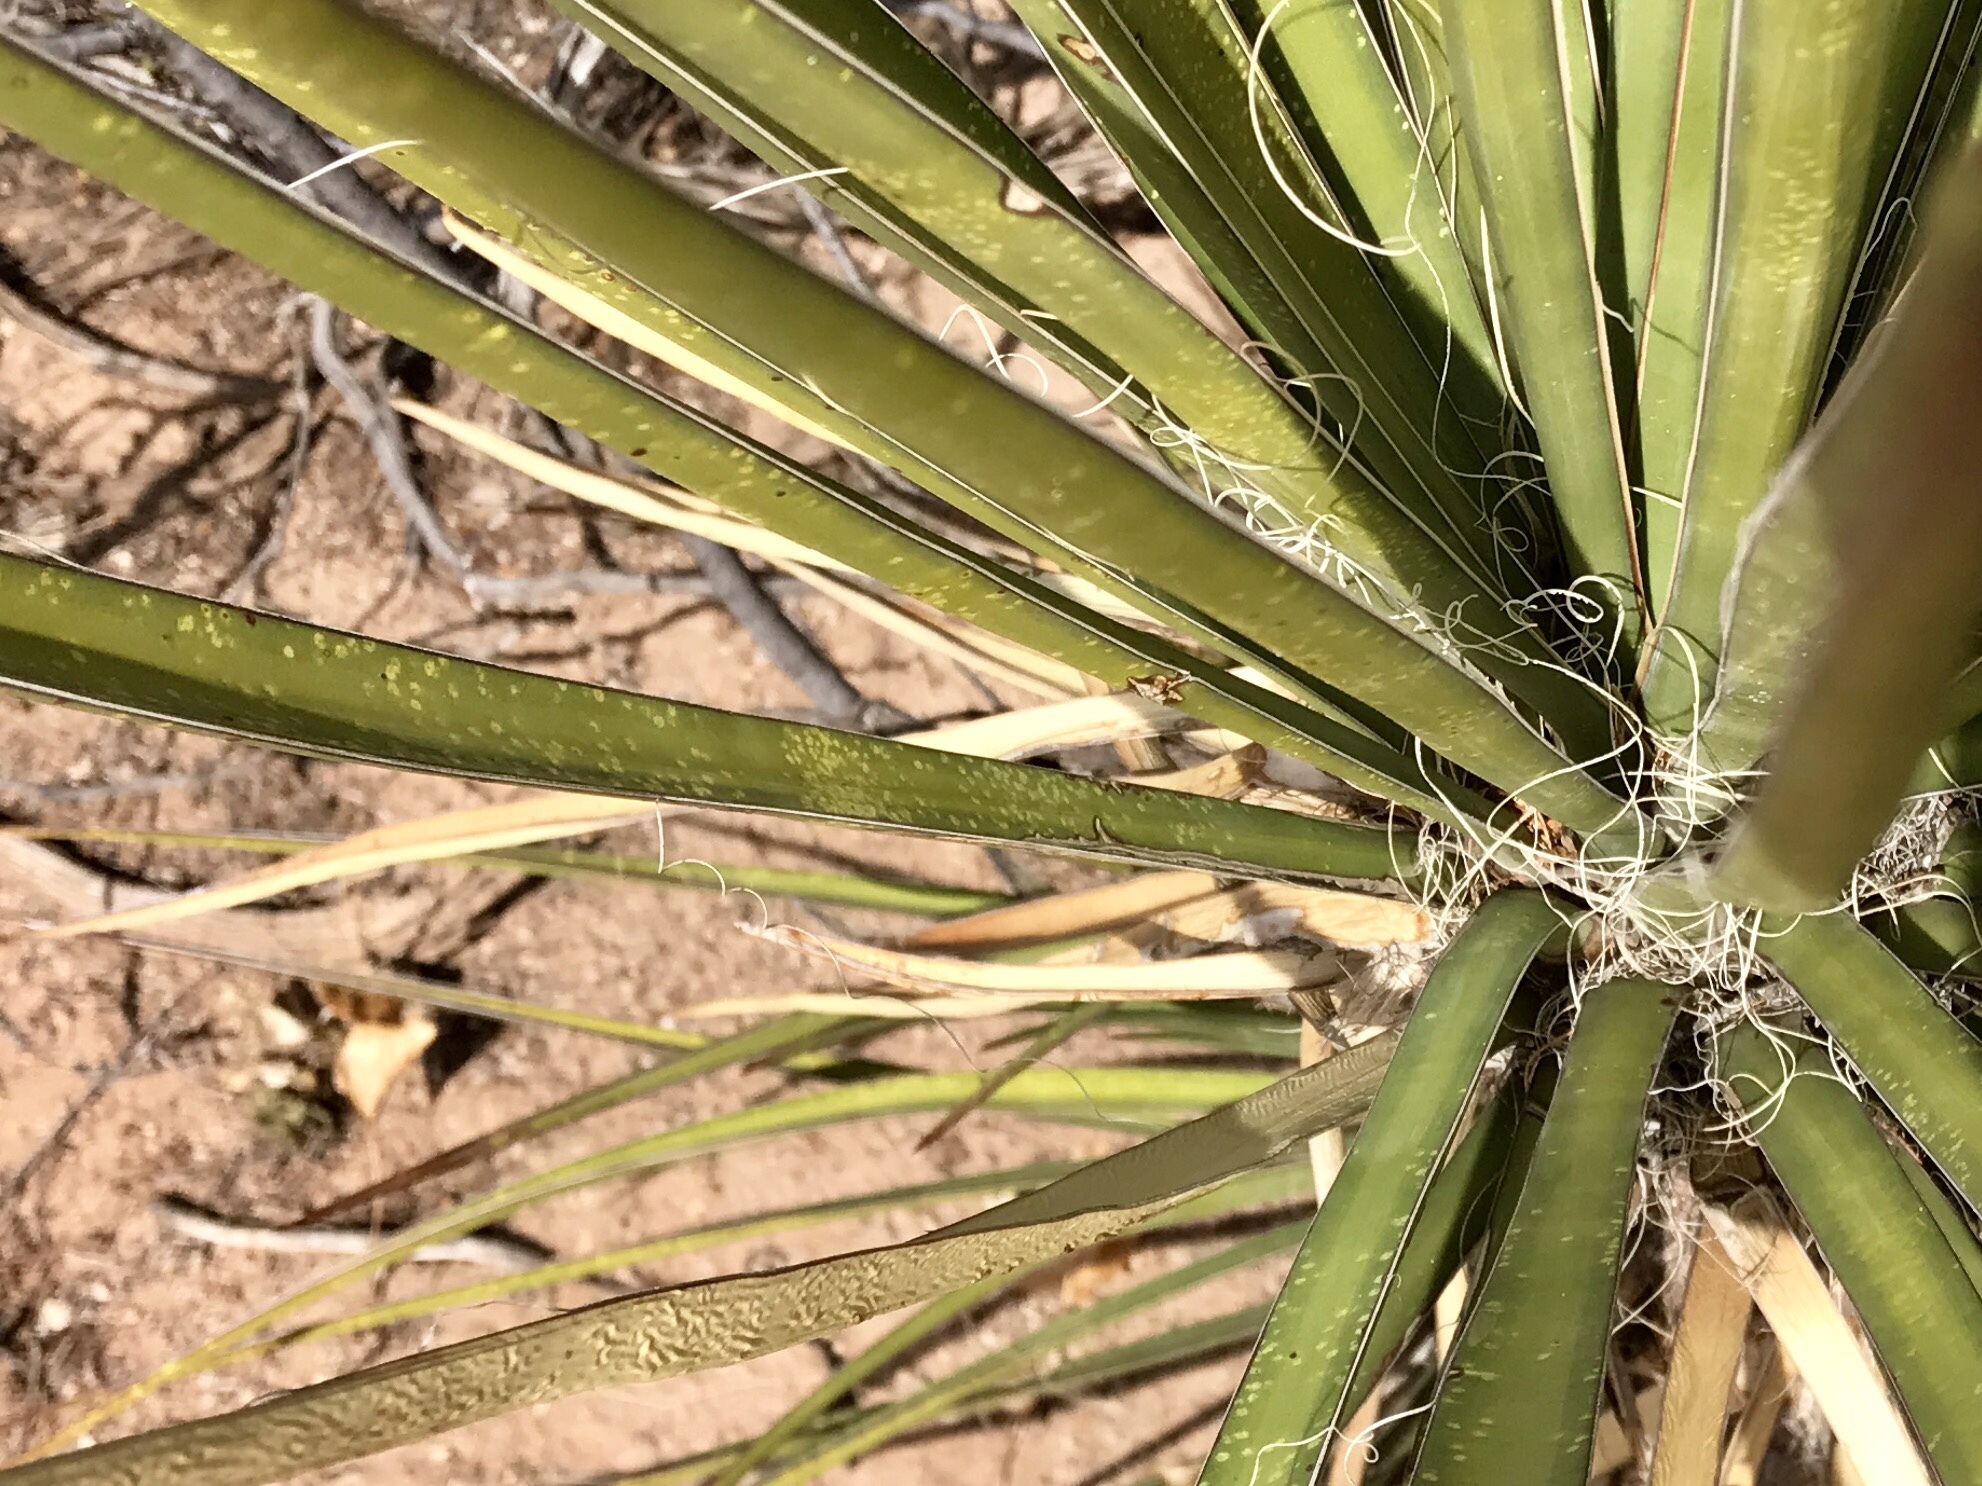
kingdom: Plantae
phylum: Tracheophyta
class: Liliopsida
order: Asparagales
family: Asparagaceae
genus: Yucca
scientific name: Yucca baccata
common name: Banana yucca
